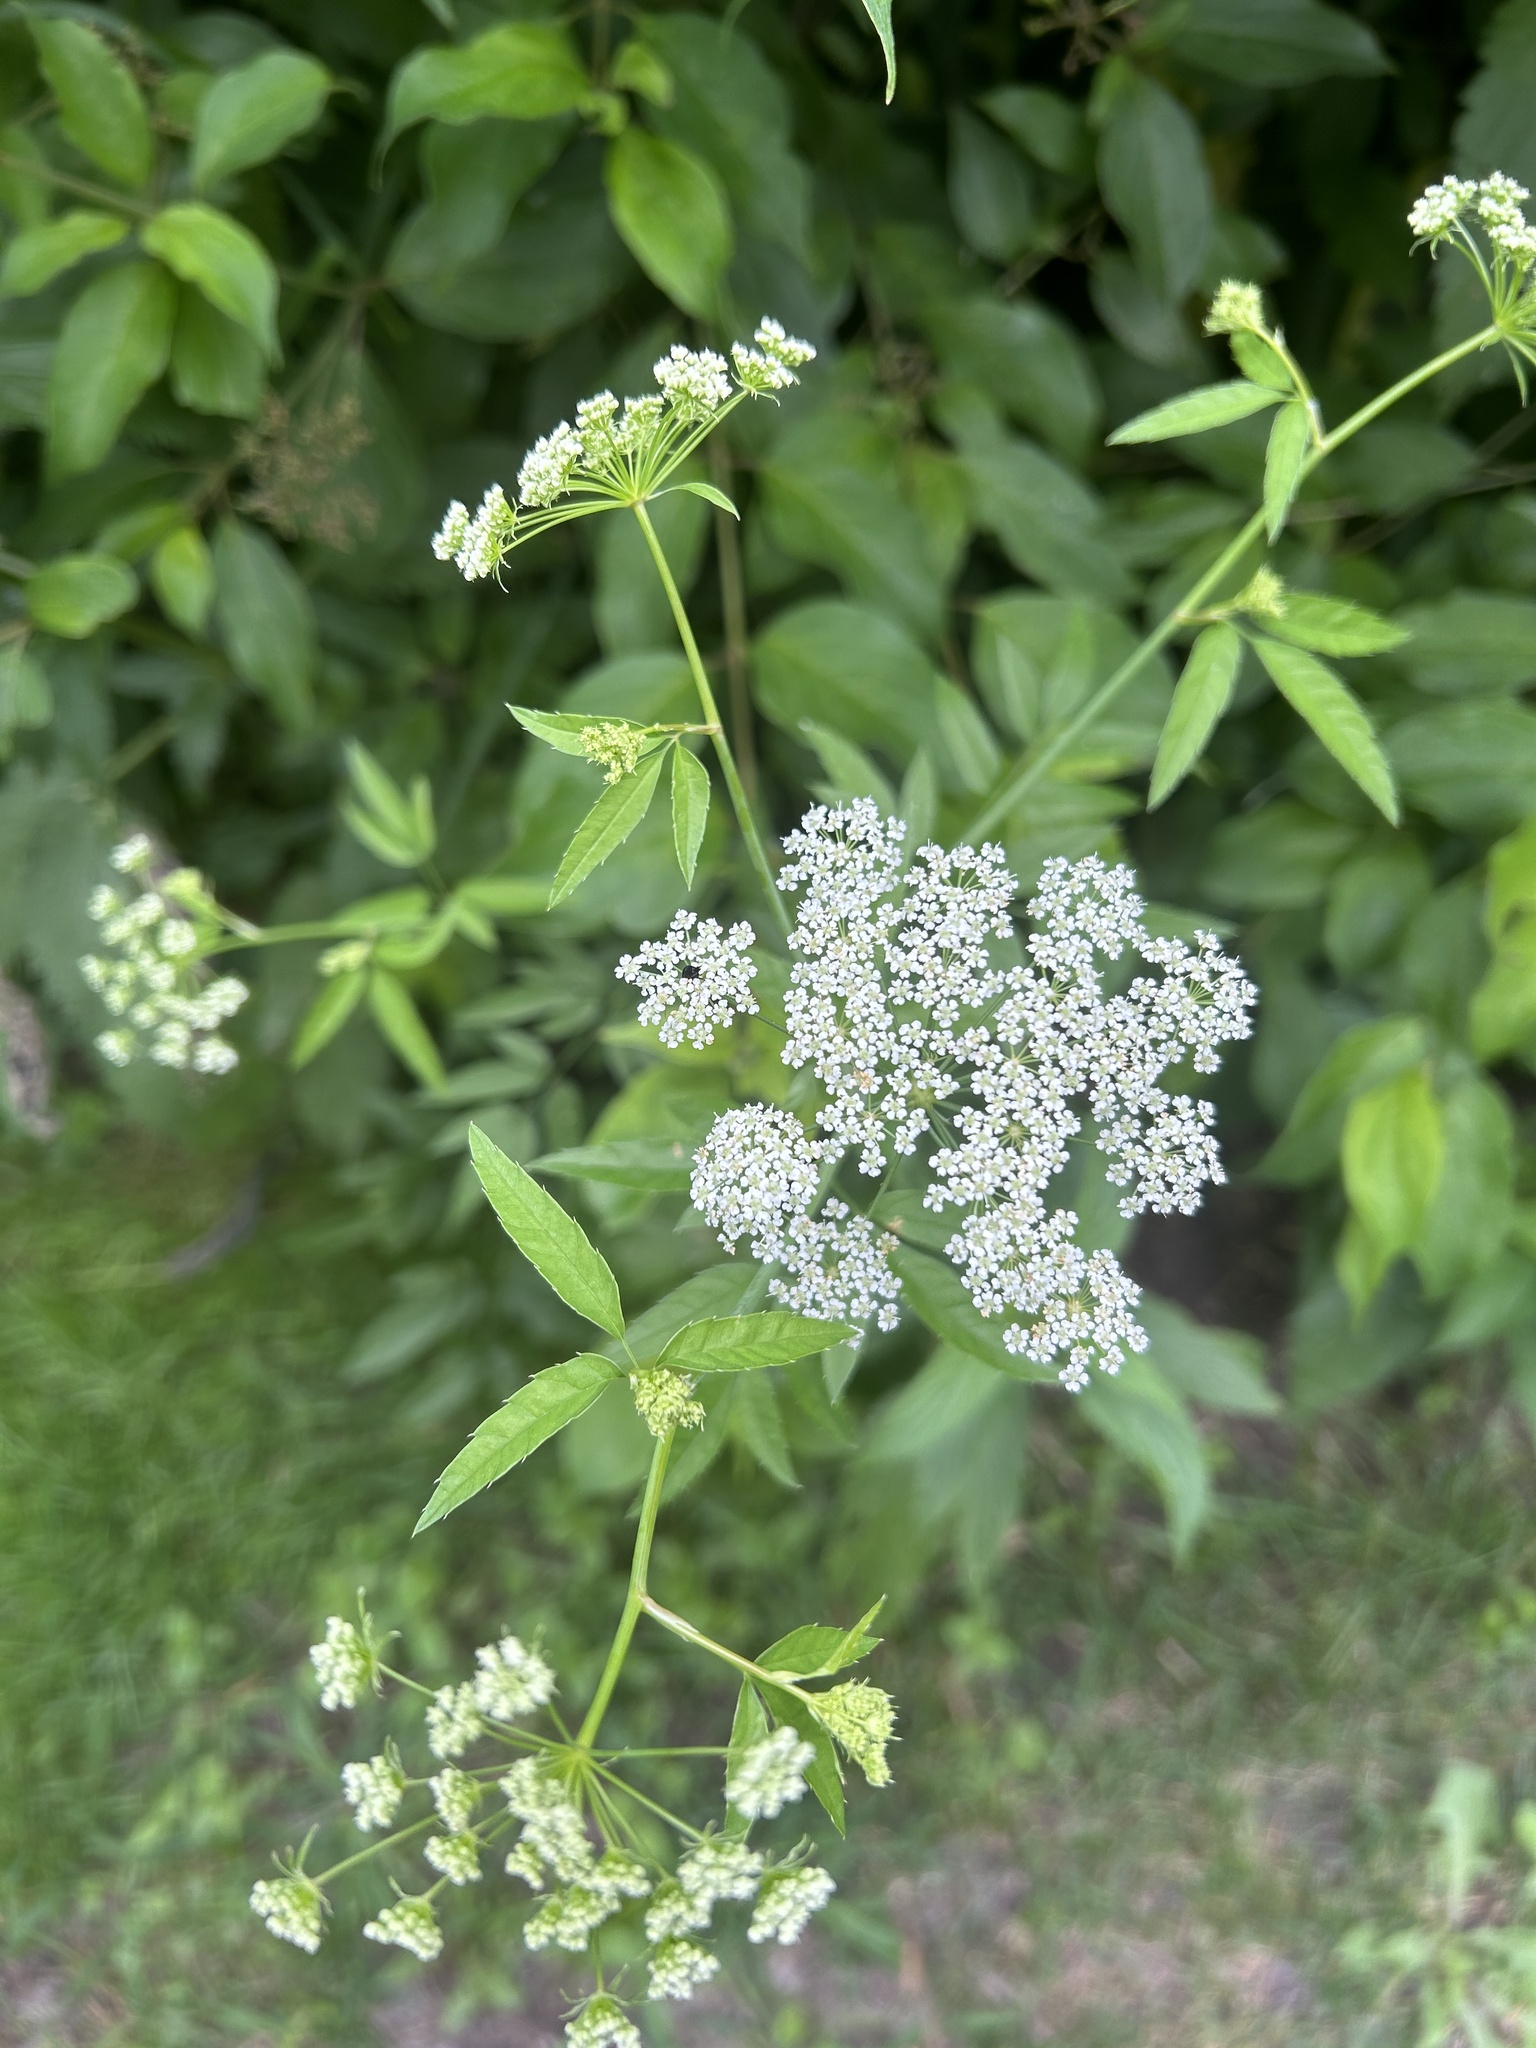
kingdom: Plantae
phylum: Tracheophyta
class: Magnoliopsida
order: Apiales
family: Apiaceae
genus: Cicuta
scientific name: Cicuta maculata
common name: Spotted cowbane
